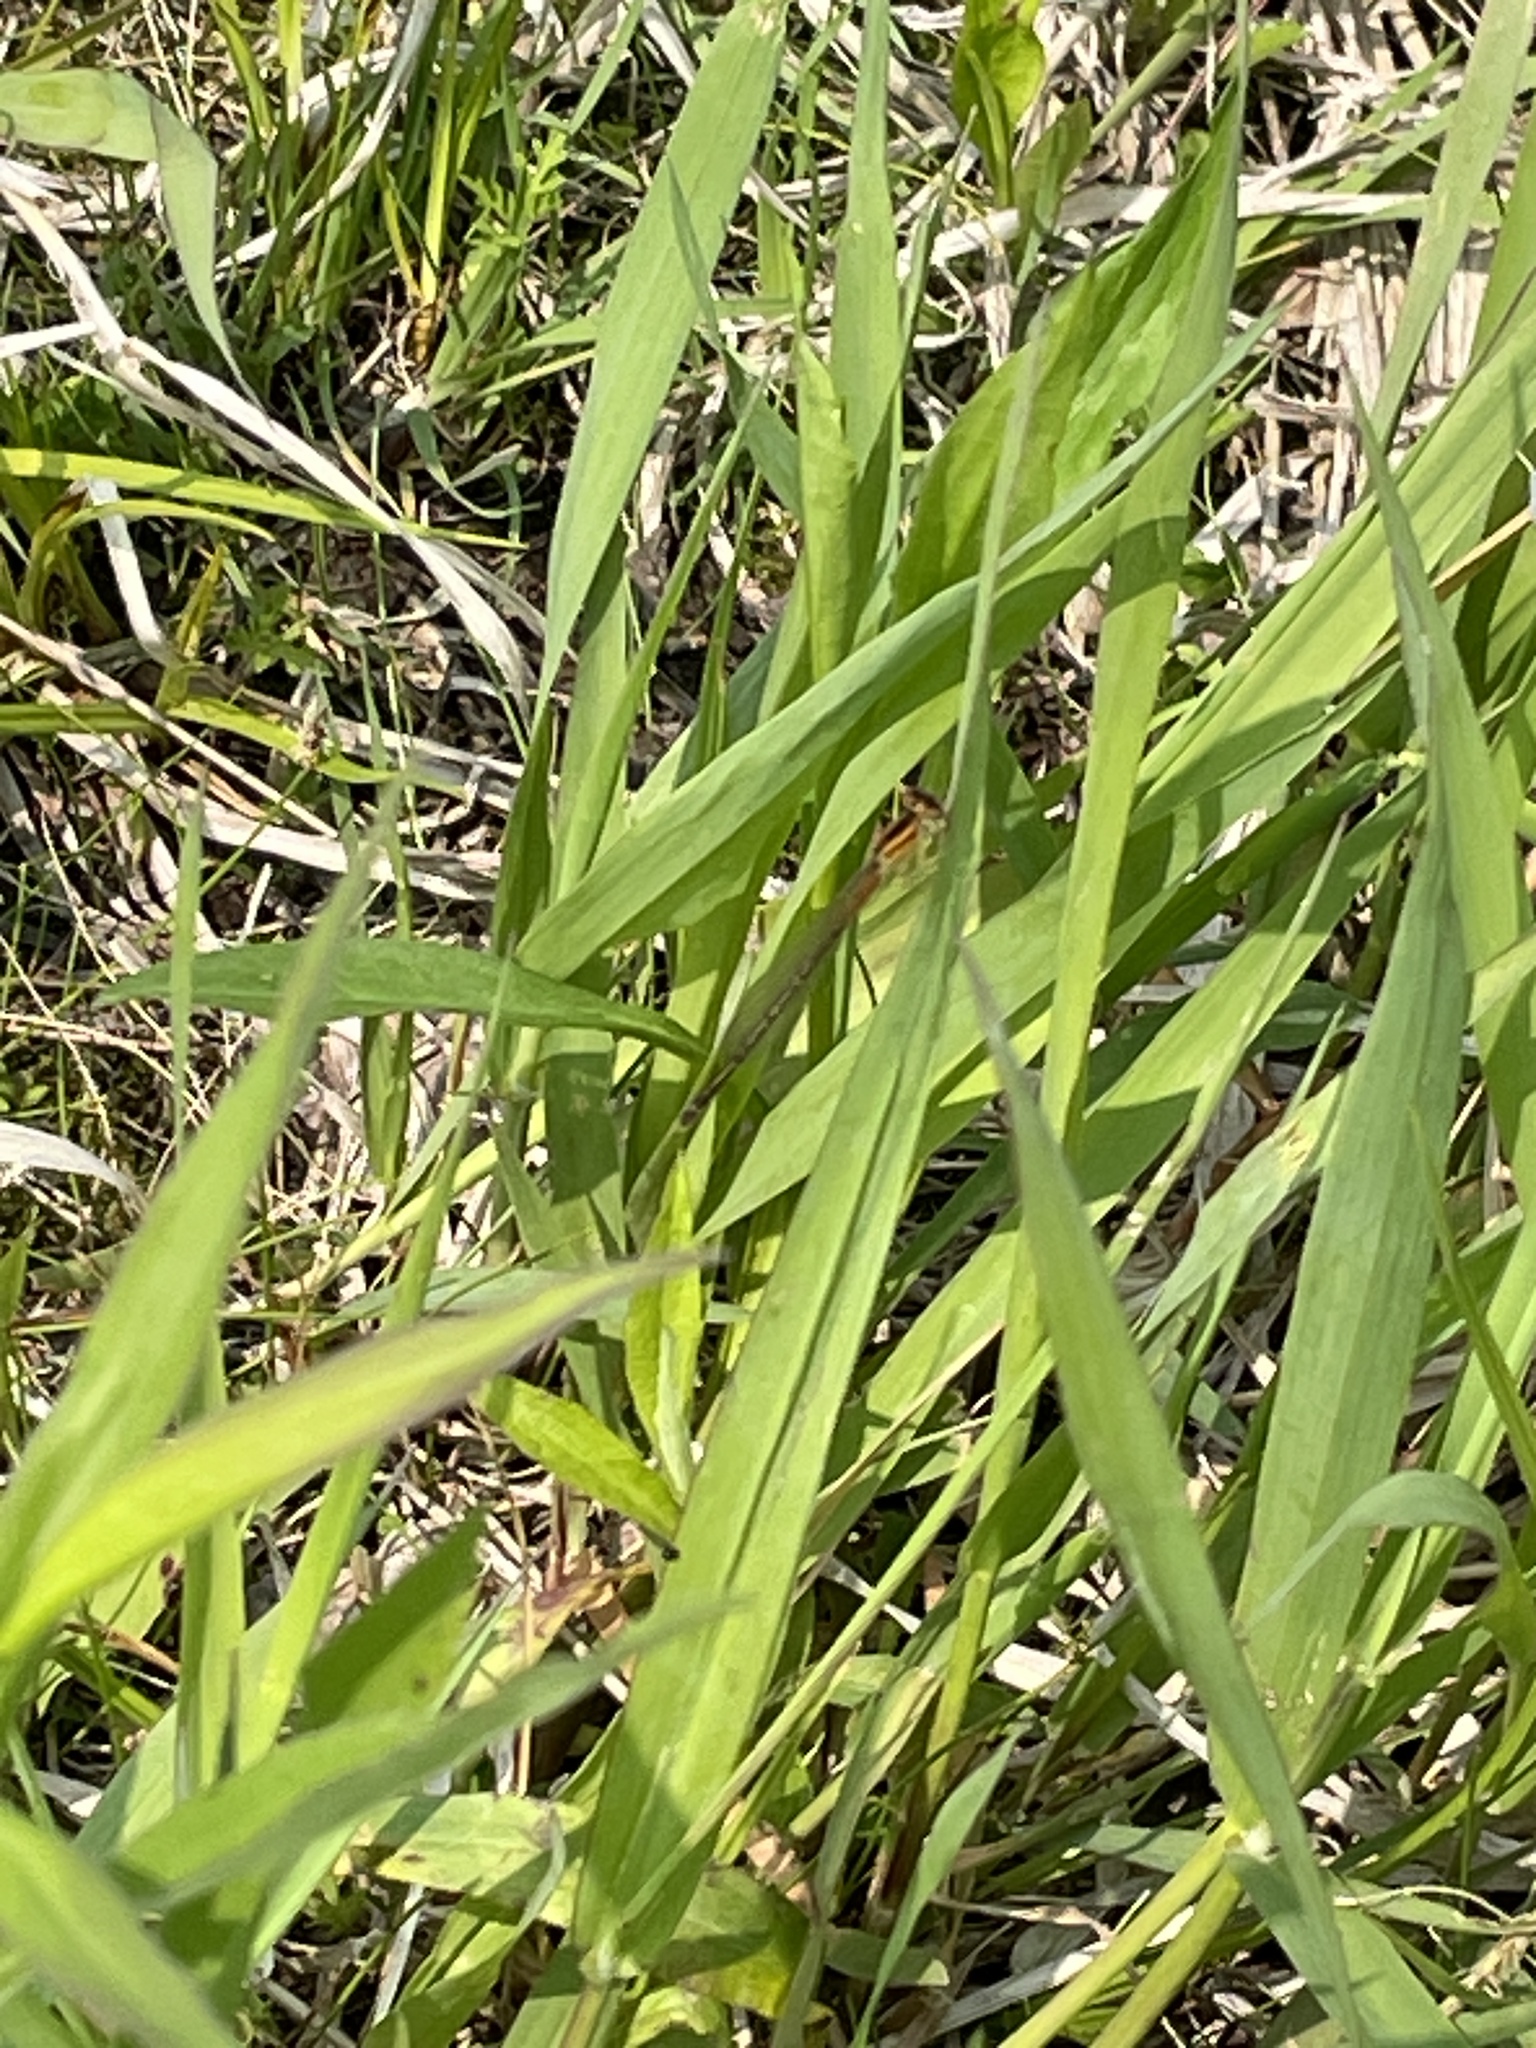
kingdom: Animalia
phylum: Arthropoda
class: Insecta
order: Odonata
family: Coenagrionidae
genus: Ischnura
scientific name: Ischnura verticalis
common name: Eastern forktail
